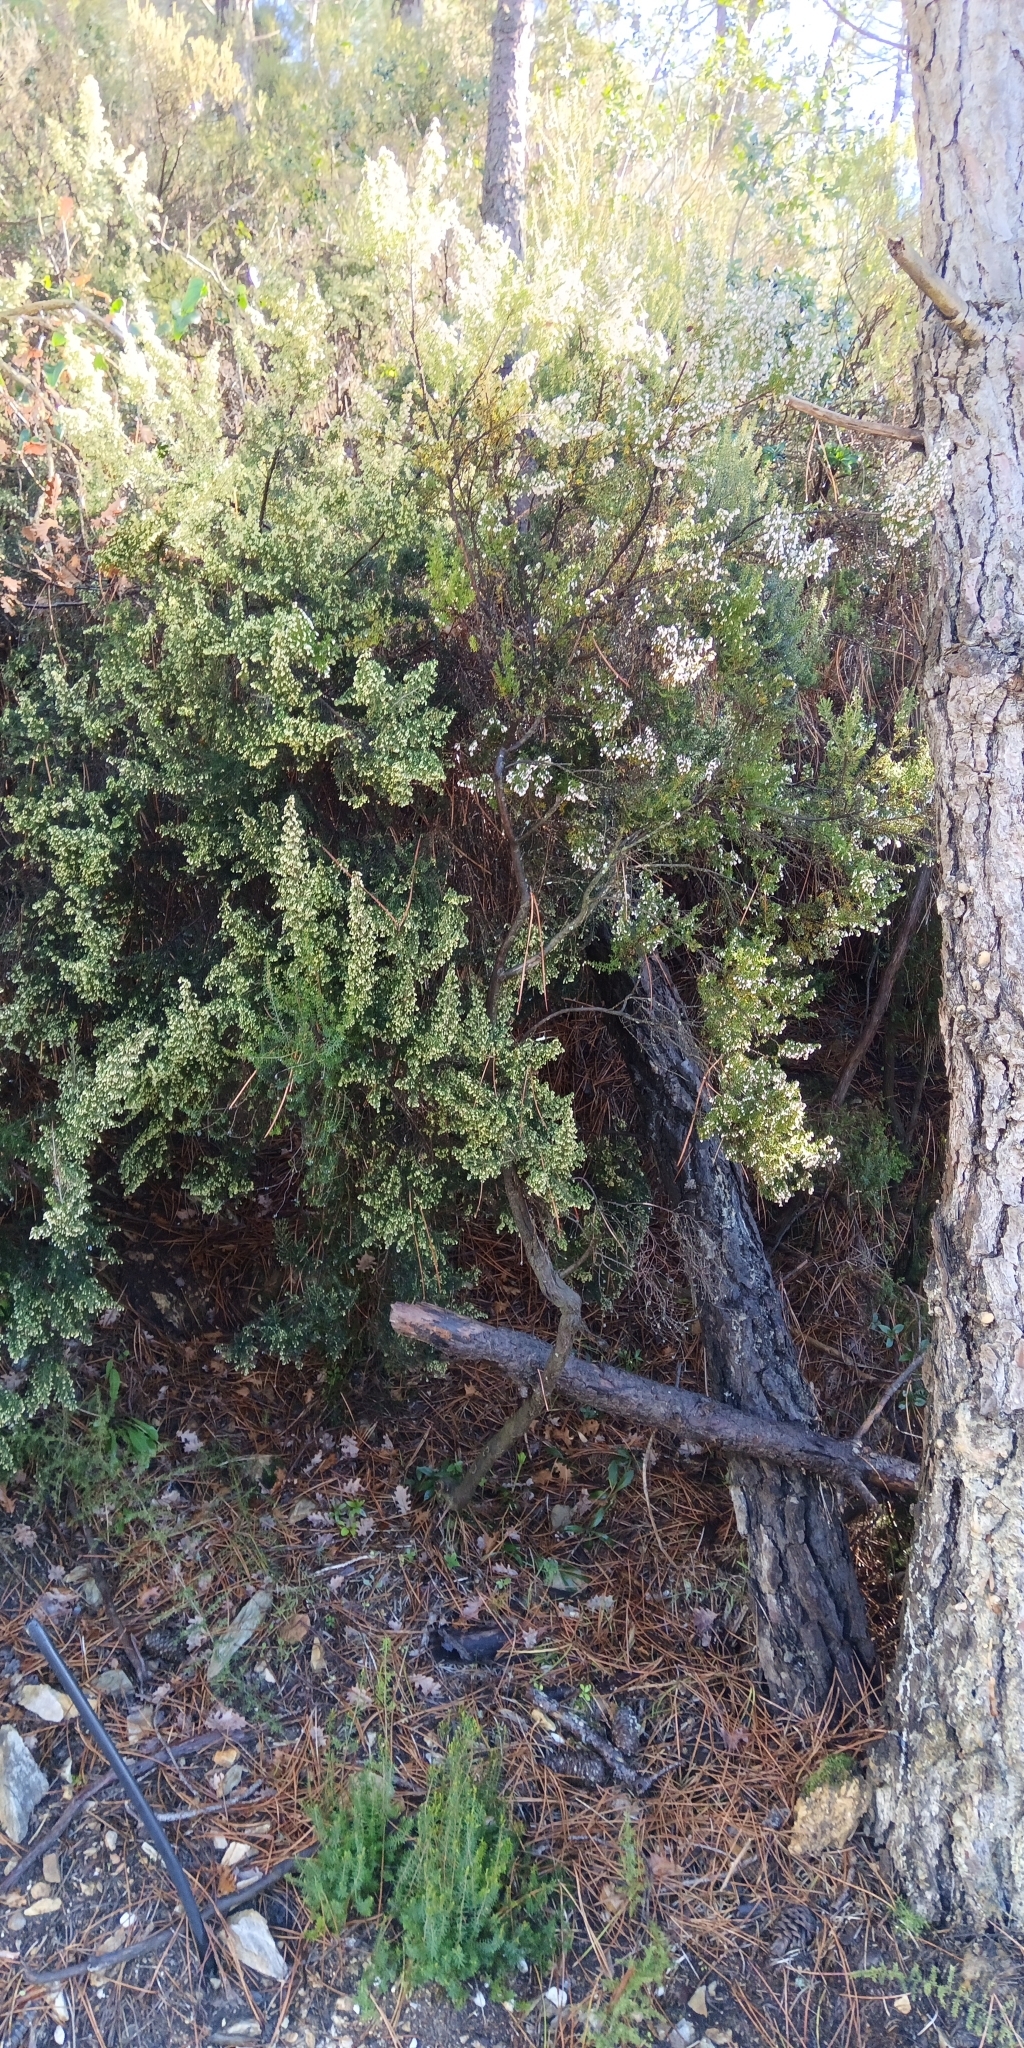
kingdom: Plantae
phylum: Tracheophyta
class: Magnoliopsida
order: Ericales
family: Ericaceae
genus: Erica
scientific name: Erica arborea
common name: Tree heath
